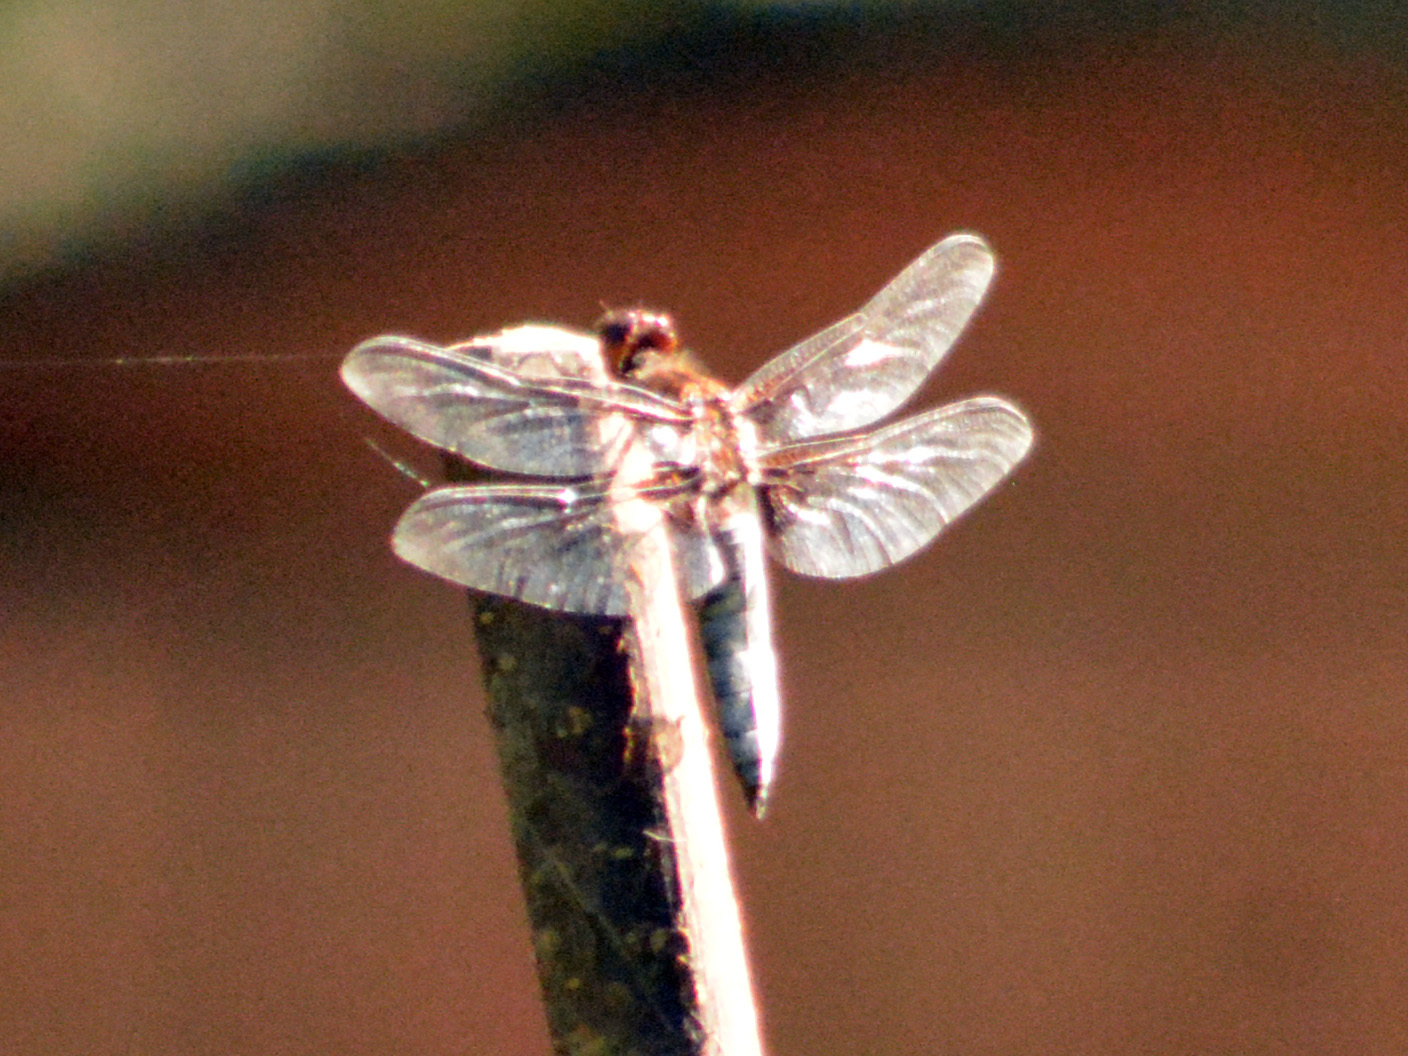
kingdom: Animalia
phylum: Arthropoda
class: Insecta
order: Odonata
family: Libellulidae
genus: Libellula
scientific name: Libellula depressa
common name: Broad-bodied chaser
